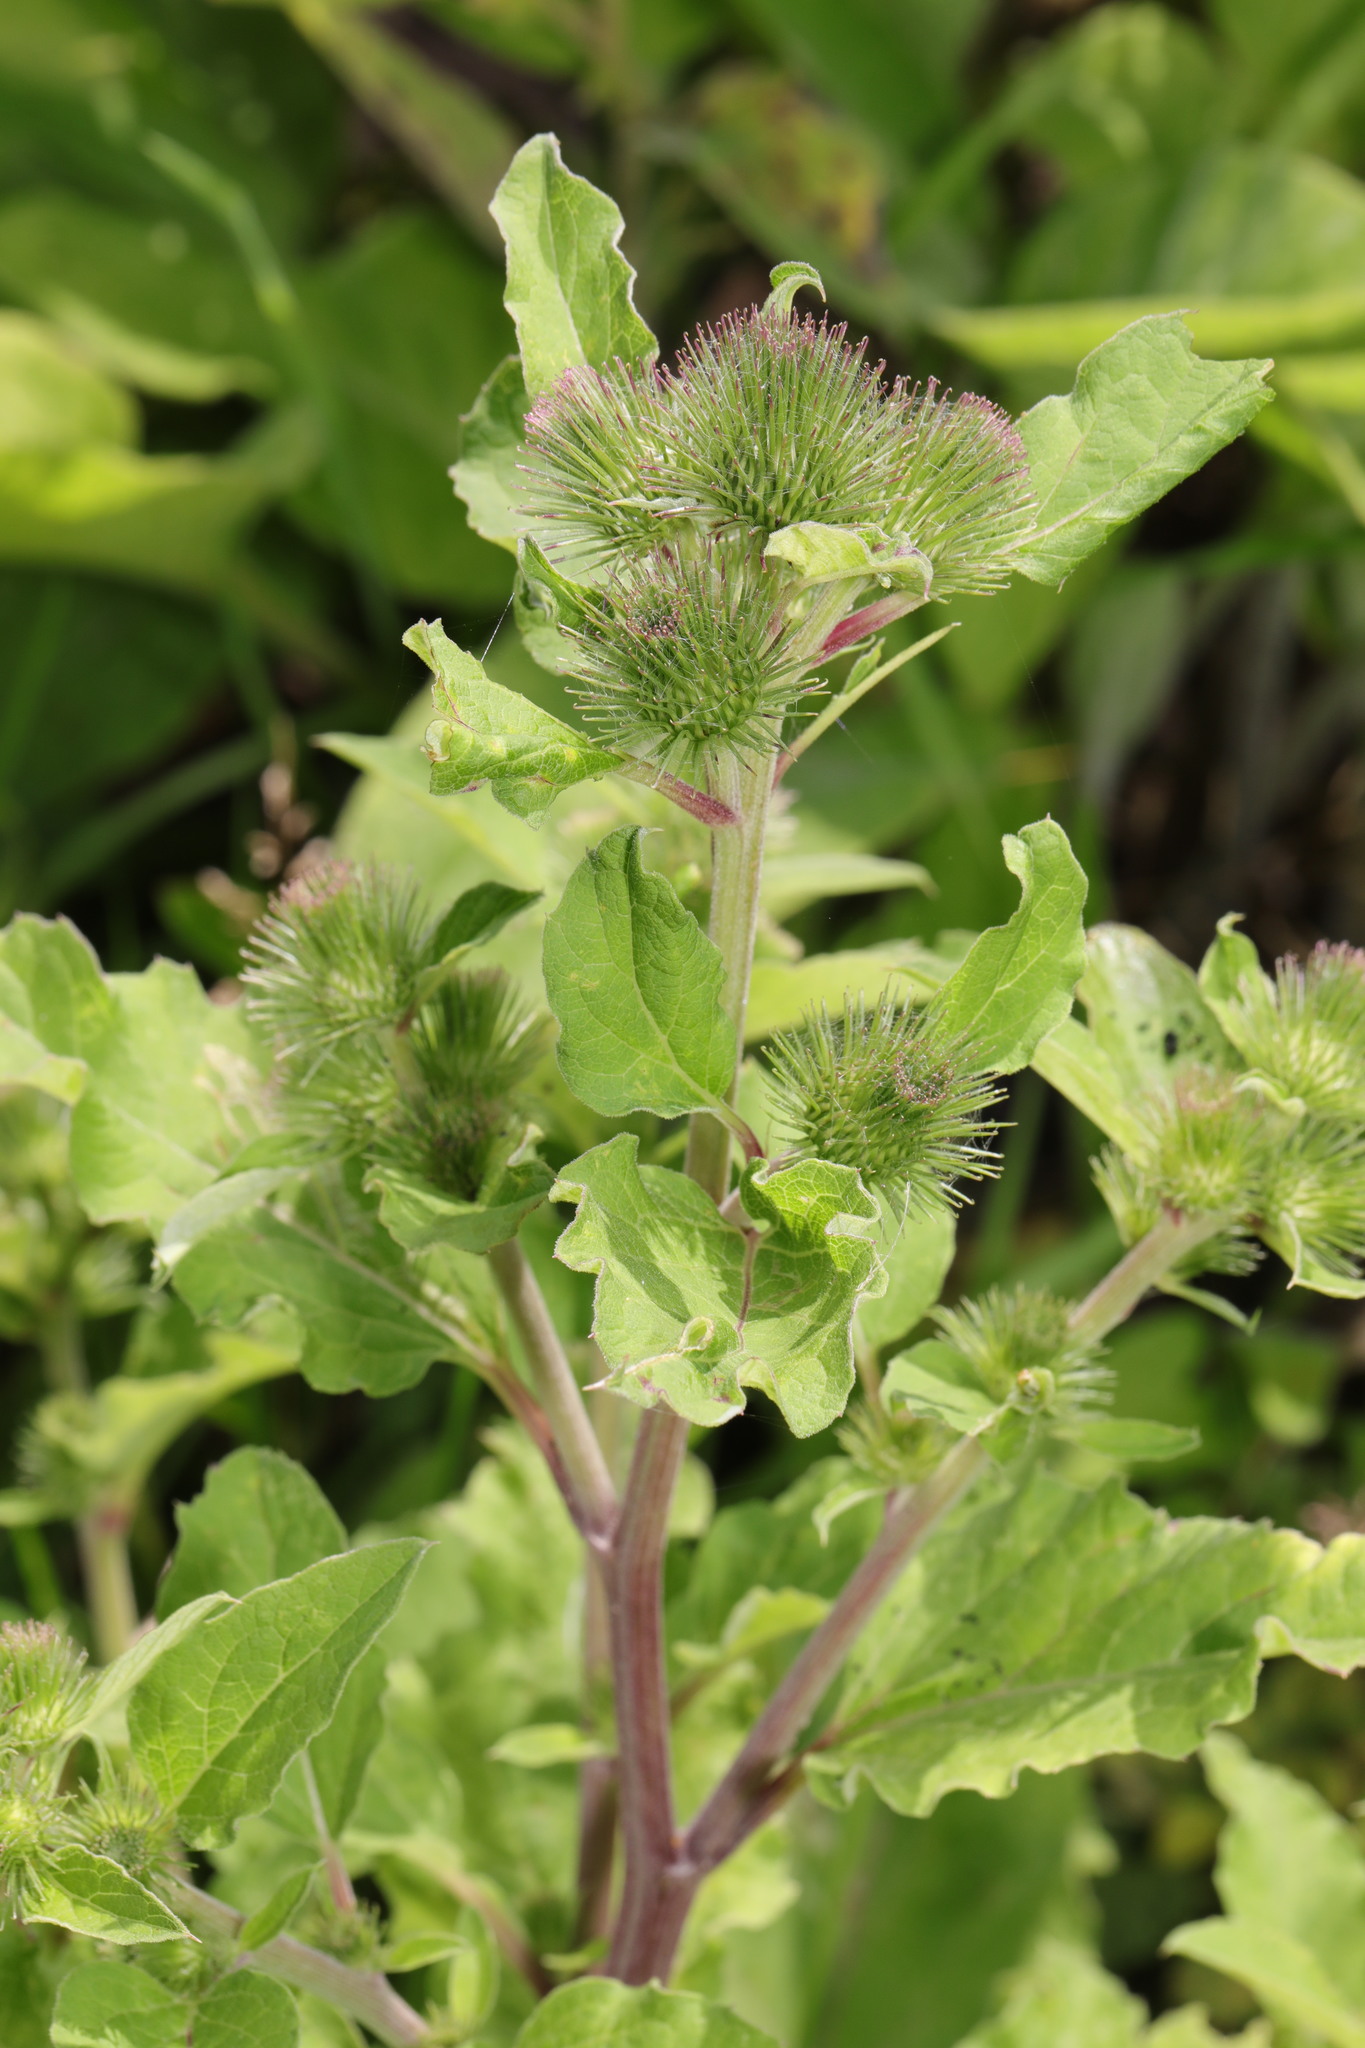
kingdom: Plantae
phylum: Tracheophyta
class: Magnoliopsida
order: Asterales
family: Asteraceae
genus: Arctium
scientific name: Arctium minus
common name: Lesser burdock
